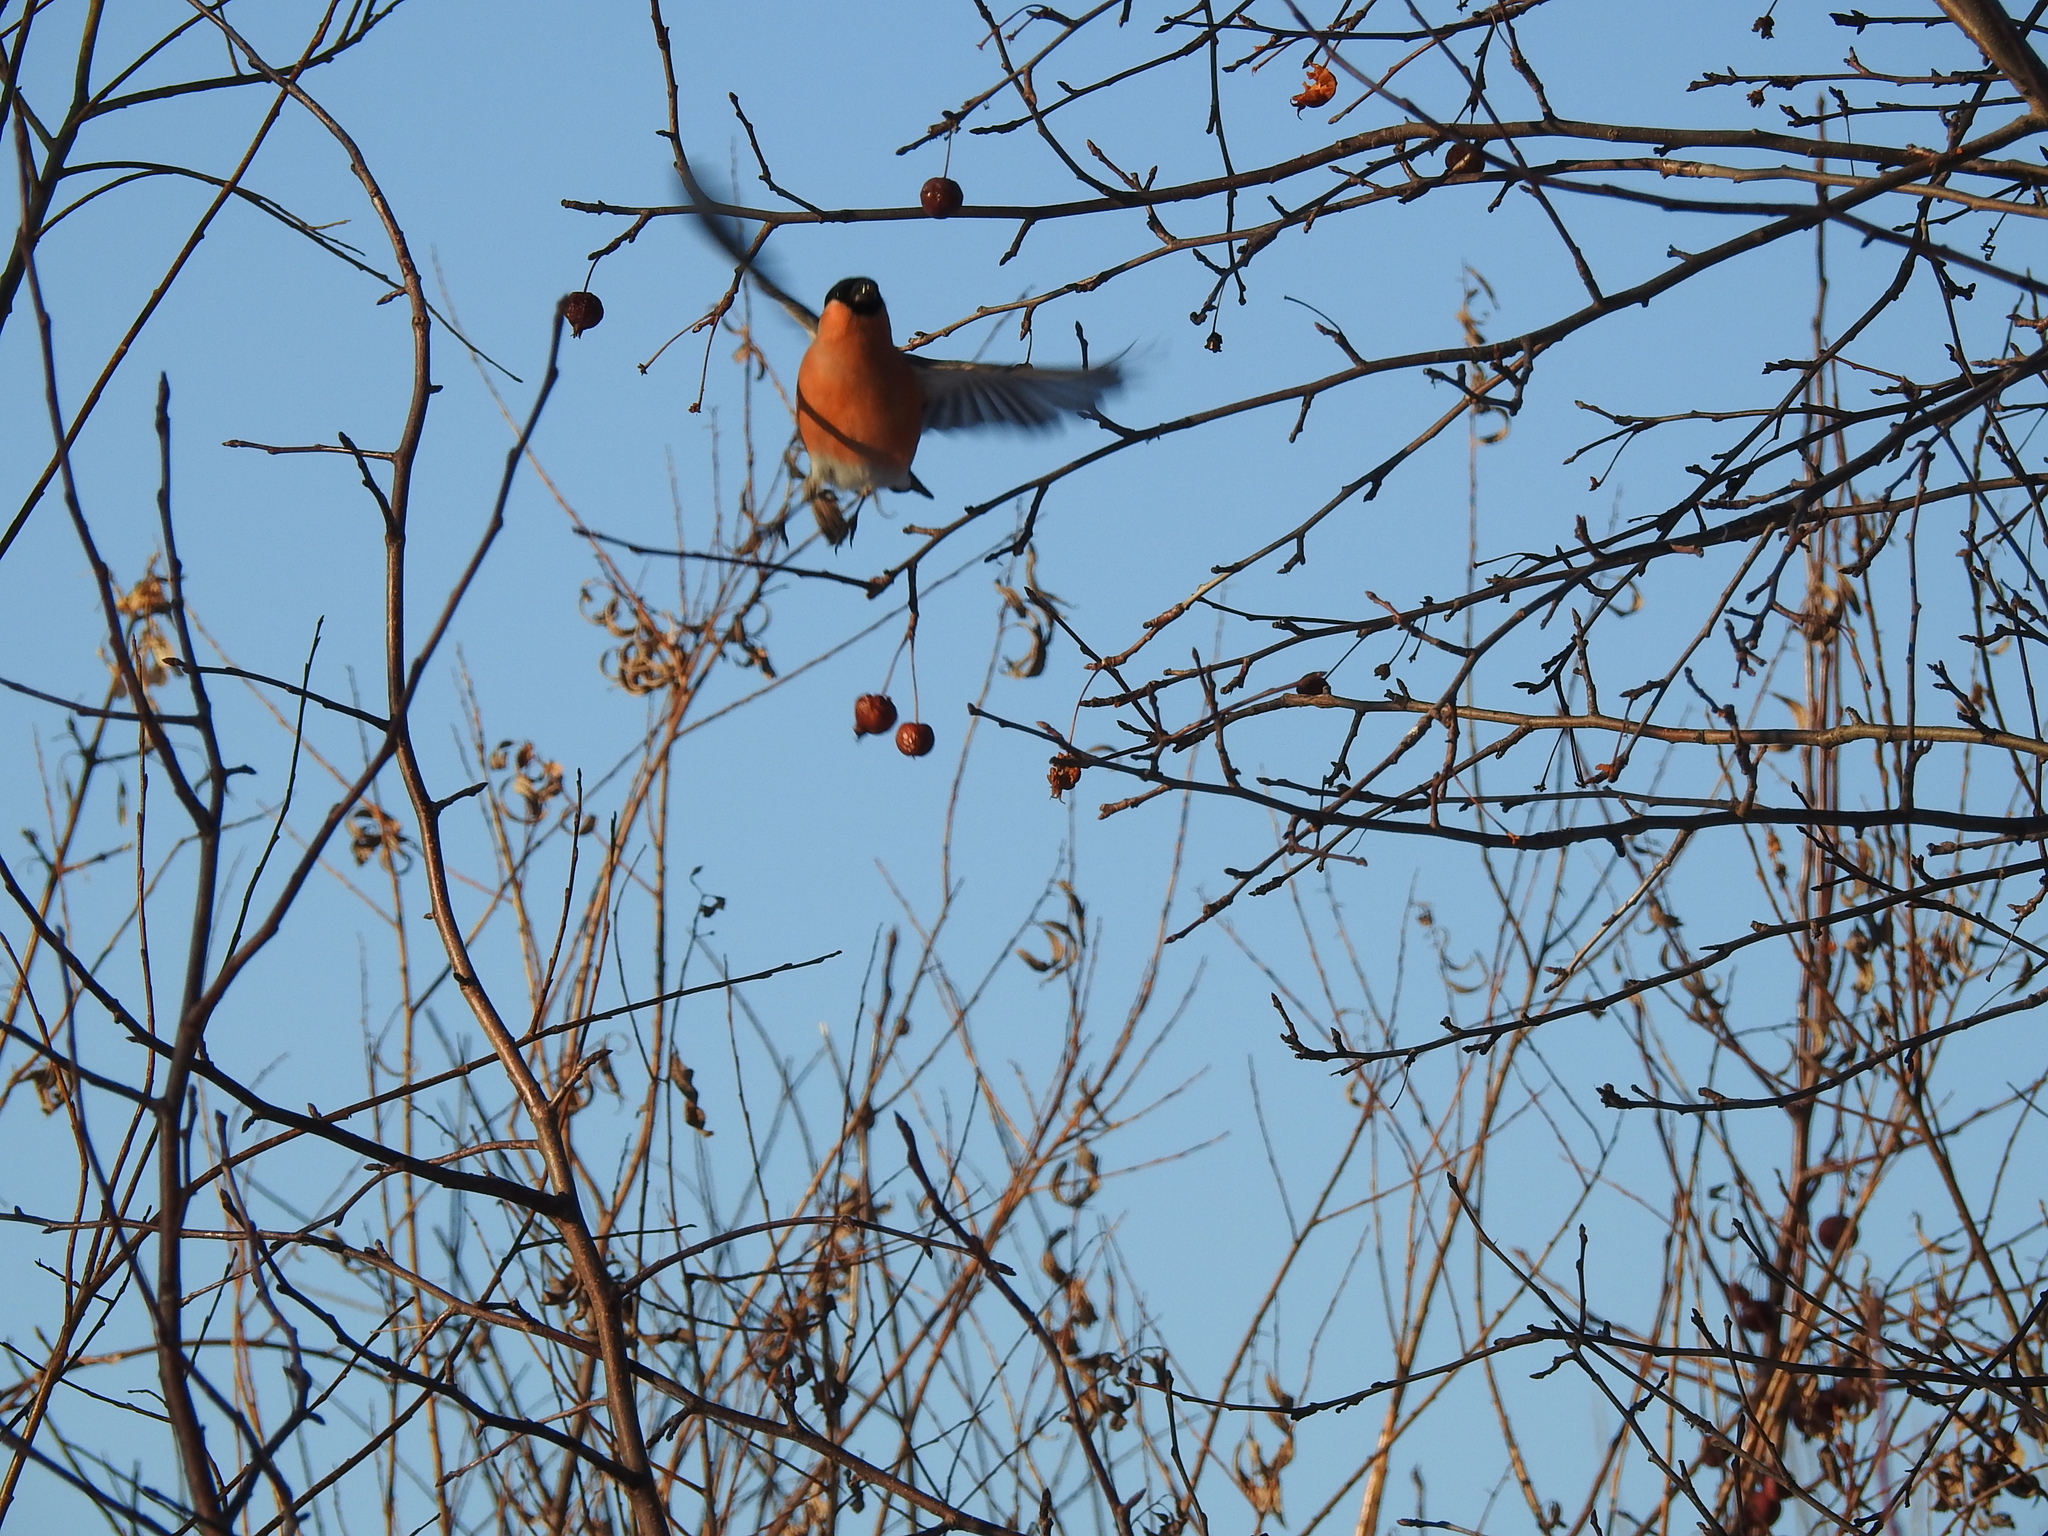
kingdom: Animalia
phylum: Chordata
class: Aves
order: Passeriformes
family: Fringillidae
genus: Pyrrhula
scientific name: Pyrrhula pyrrhula
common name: Eurasian bullfinch
